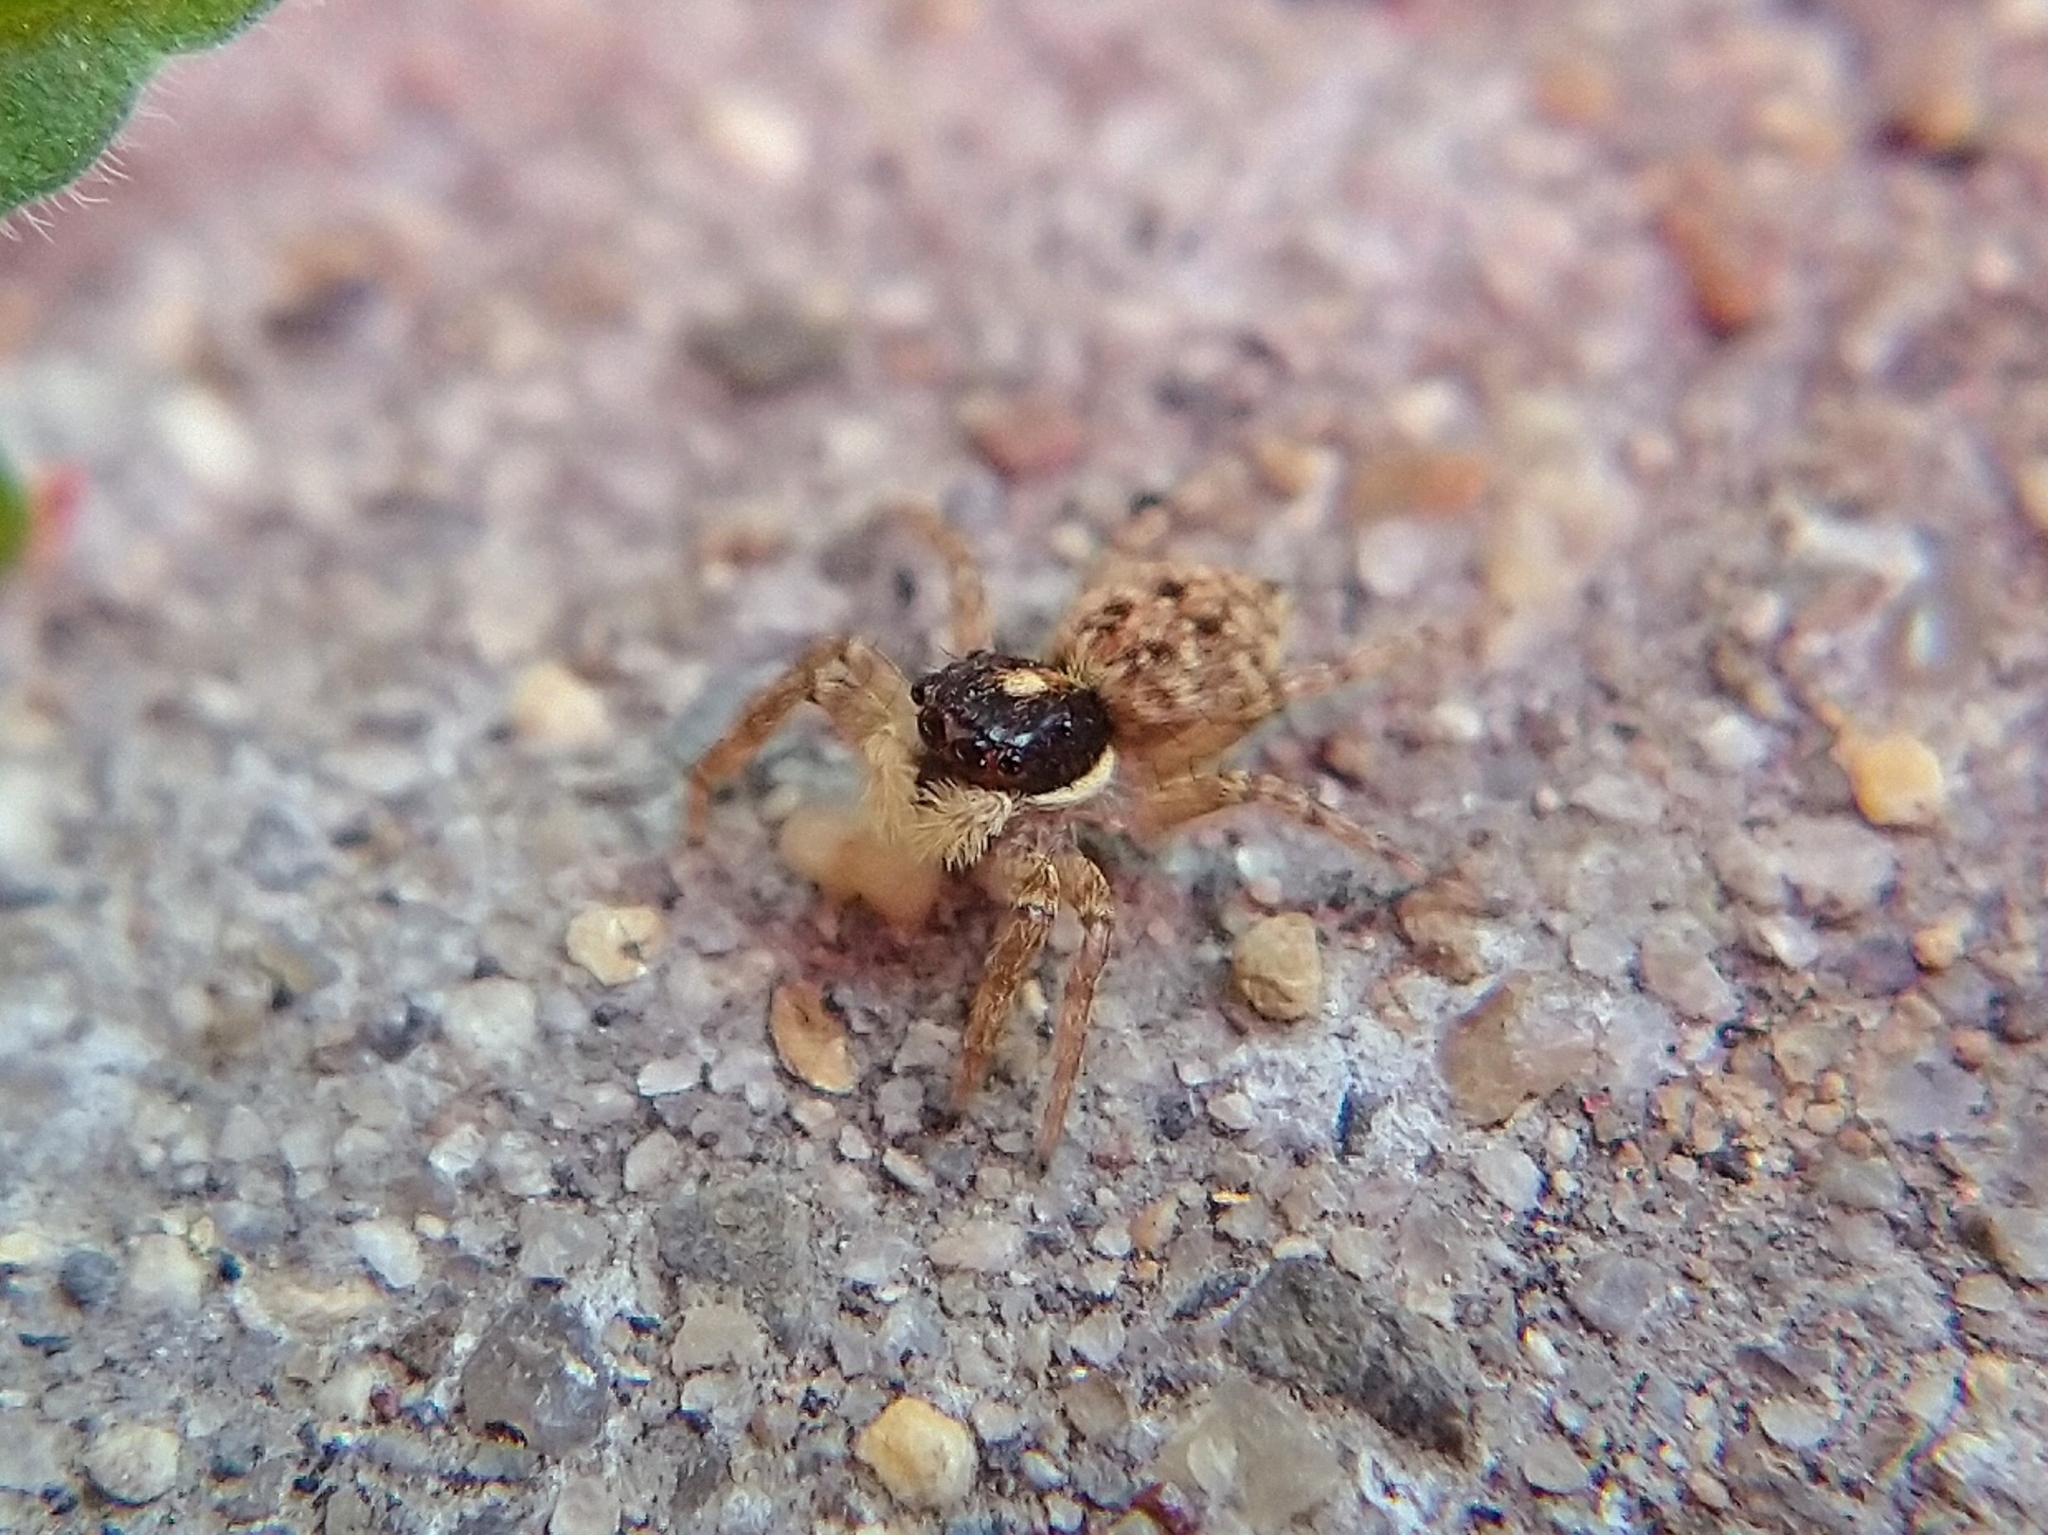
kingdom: Animalia
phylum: Arthropoda
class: Arachnida
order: Araneae
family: Salticidae
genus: Menemerus
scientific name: Menemerus semilimbatus
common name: Jumping spider
